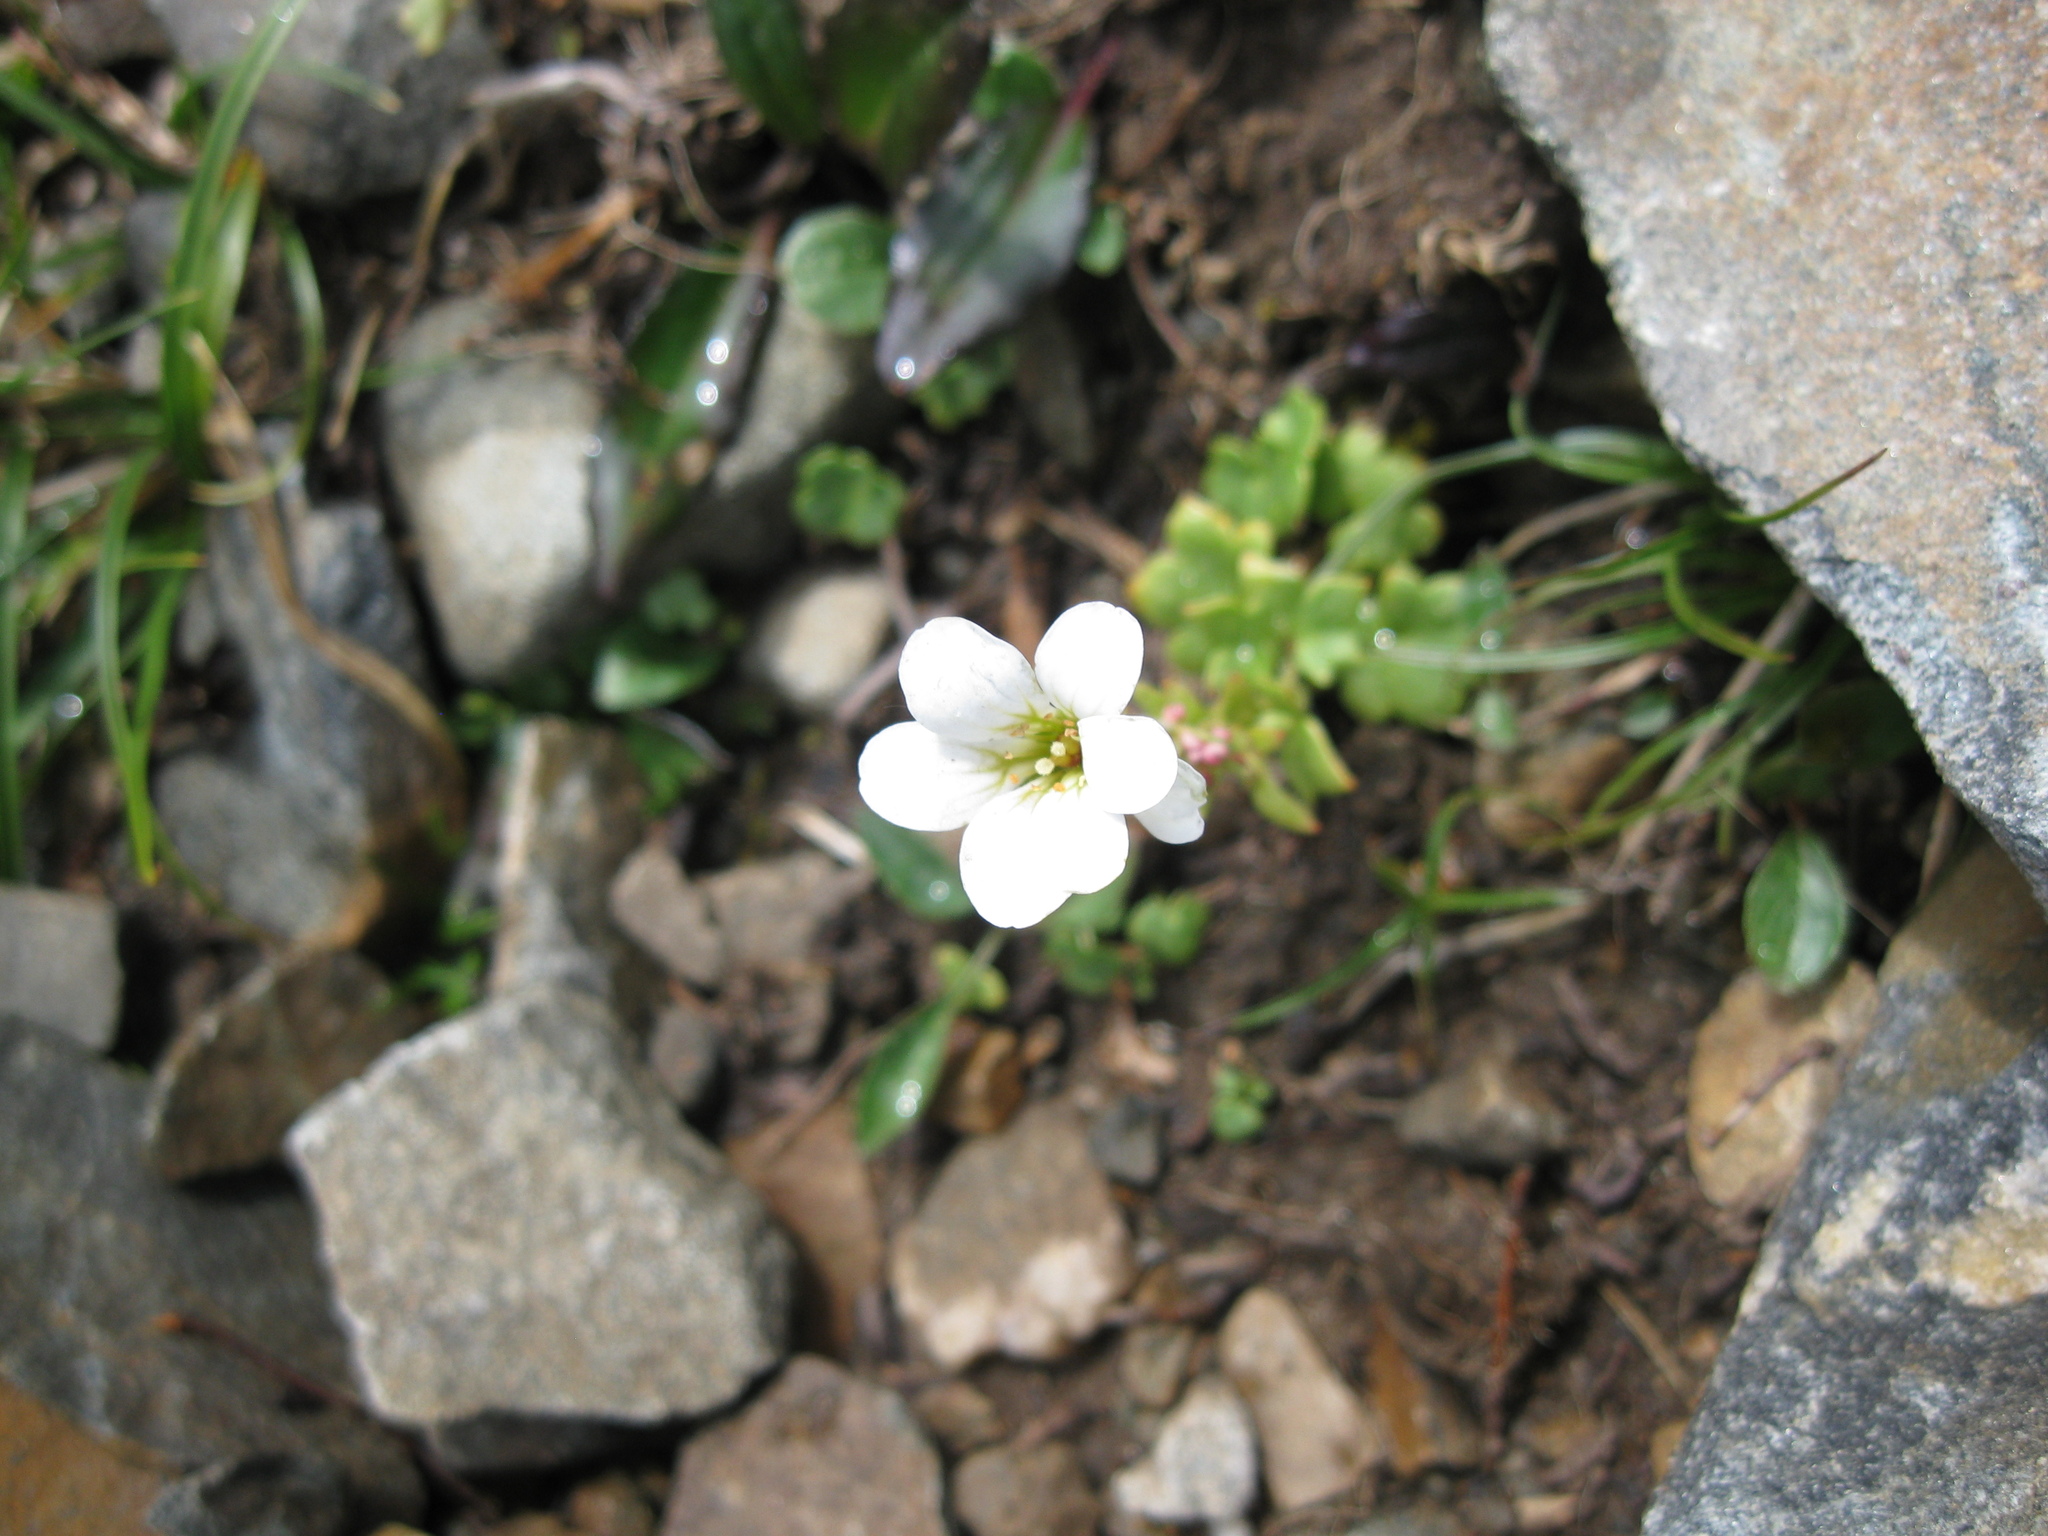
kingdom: Plantae
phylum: Tracheophyta
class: Magnoliopsida
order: Saxifragales
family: Saxifragaceae
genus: Saxifraga
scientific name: Saxifraga sibirica
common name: Siberian saxifrage
